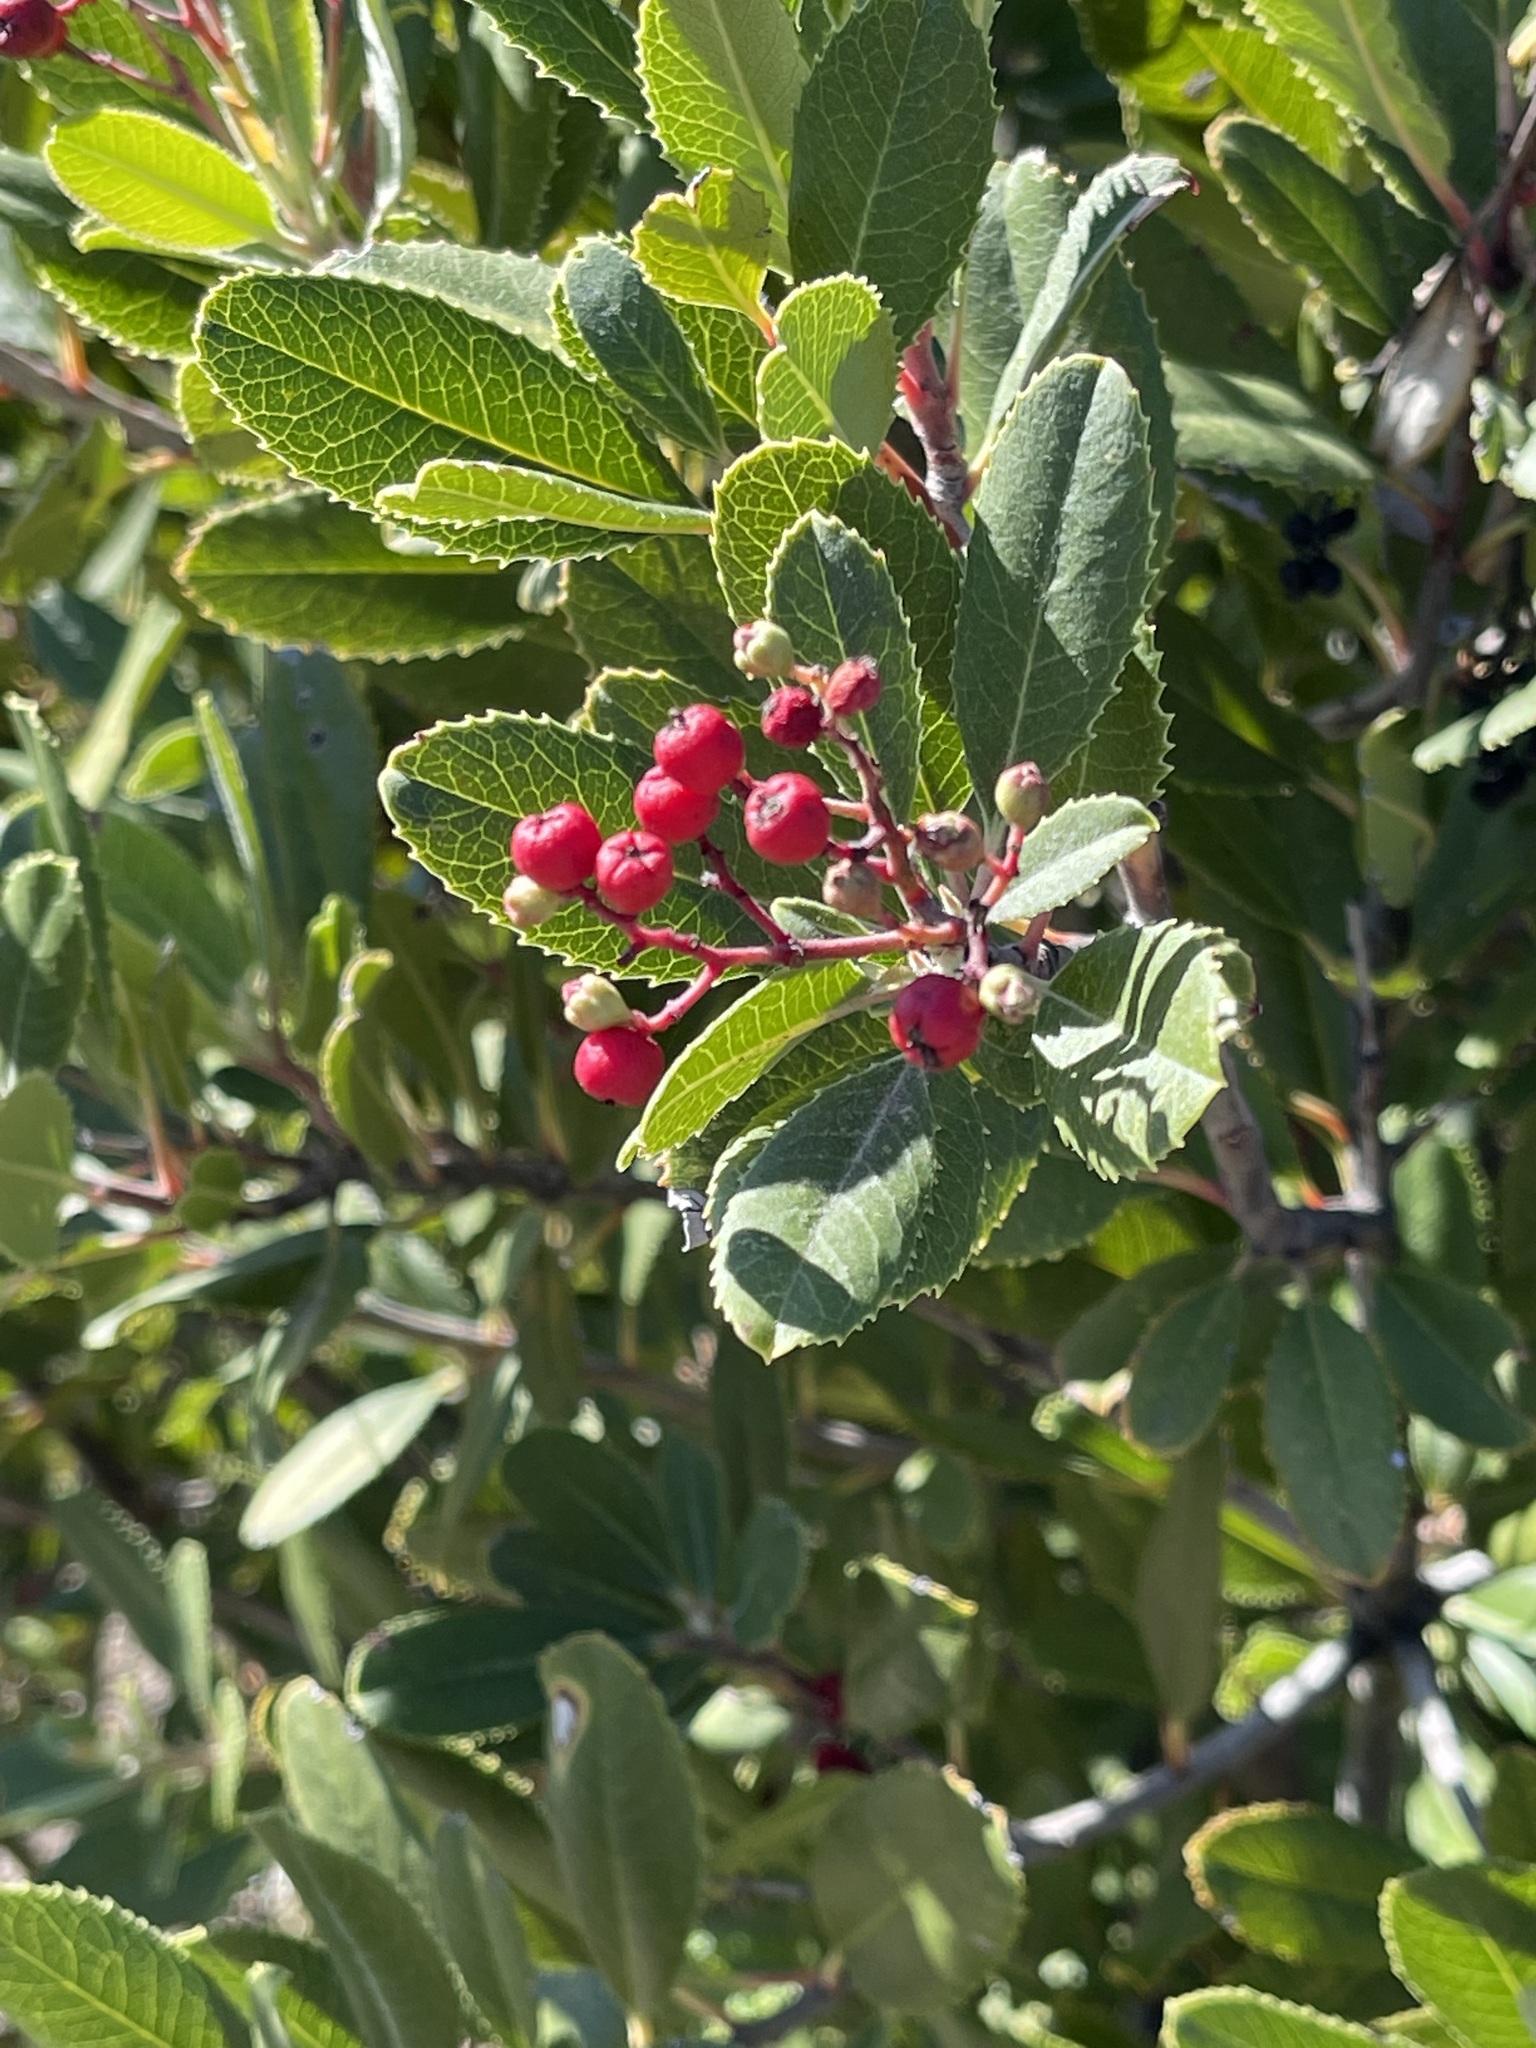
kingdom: Plantae
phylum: Tracheophyta
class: Magnoliopsida
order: Rosales
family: Rosaceae
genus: Heteromeles
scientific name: Heteromeles arbutifolia
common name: California-holly
